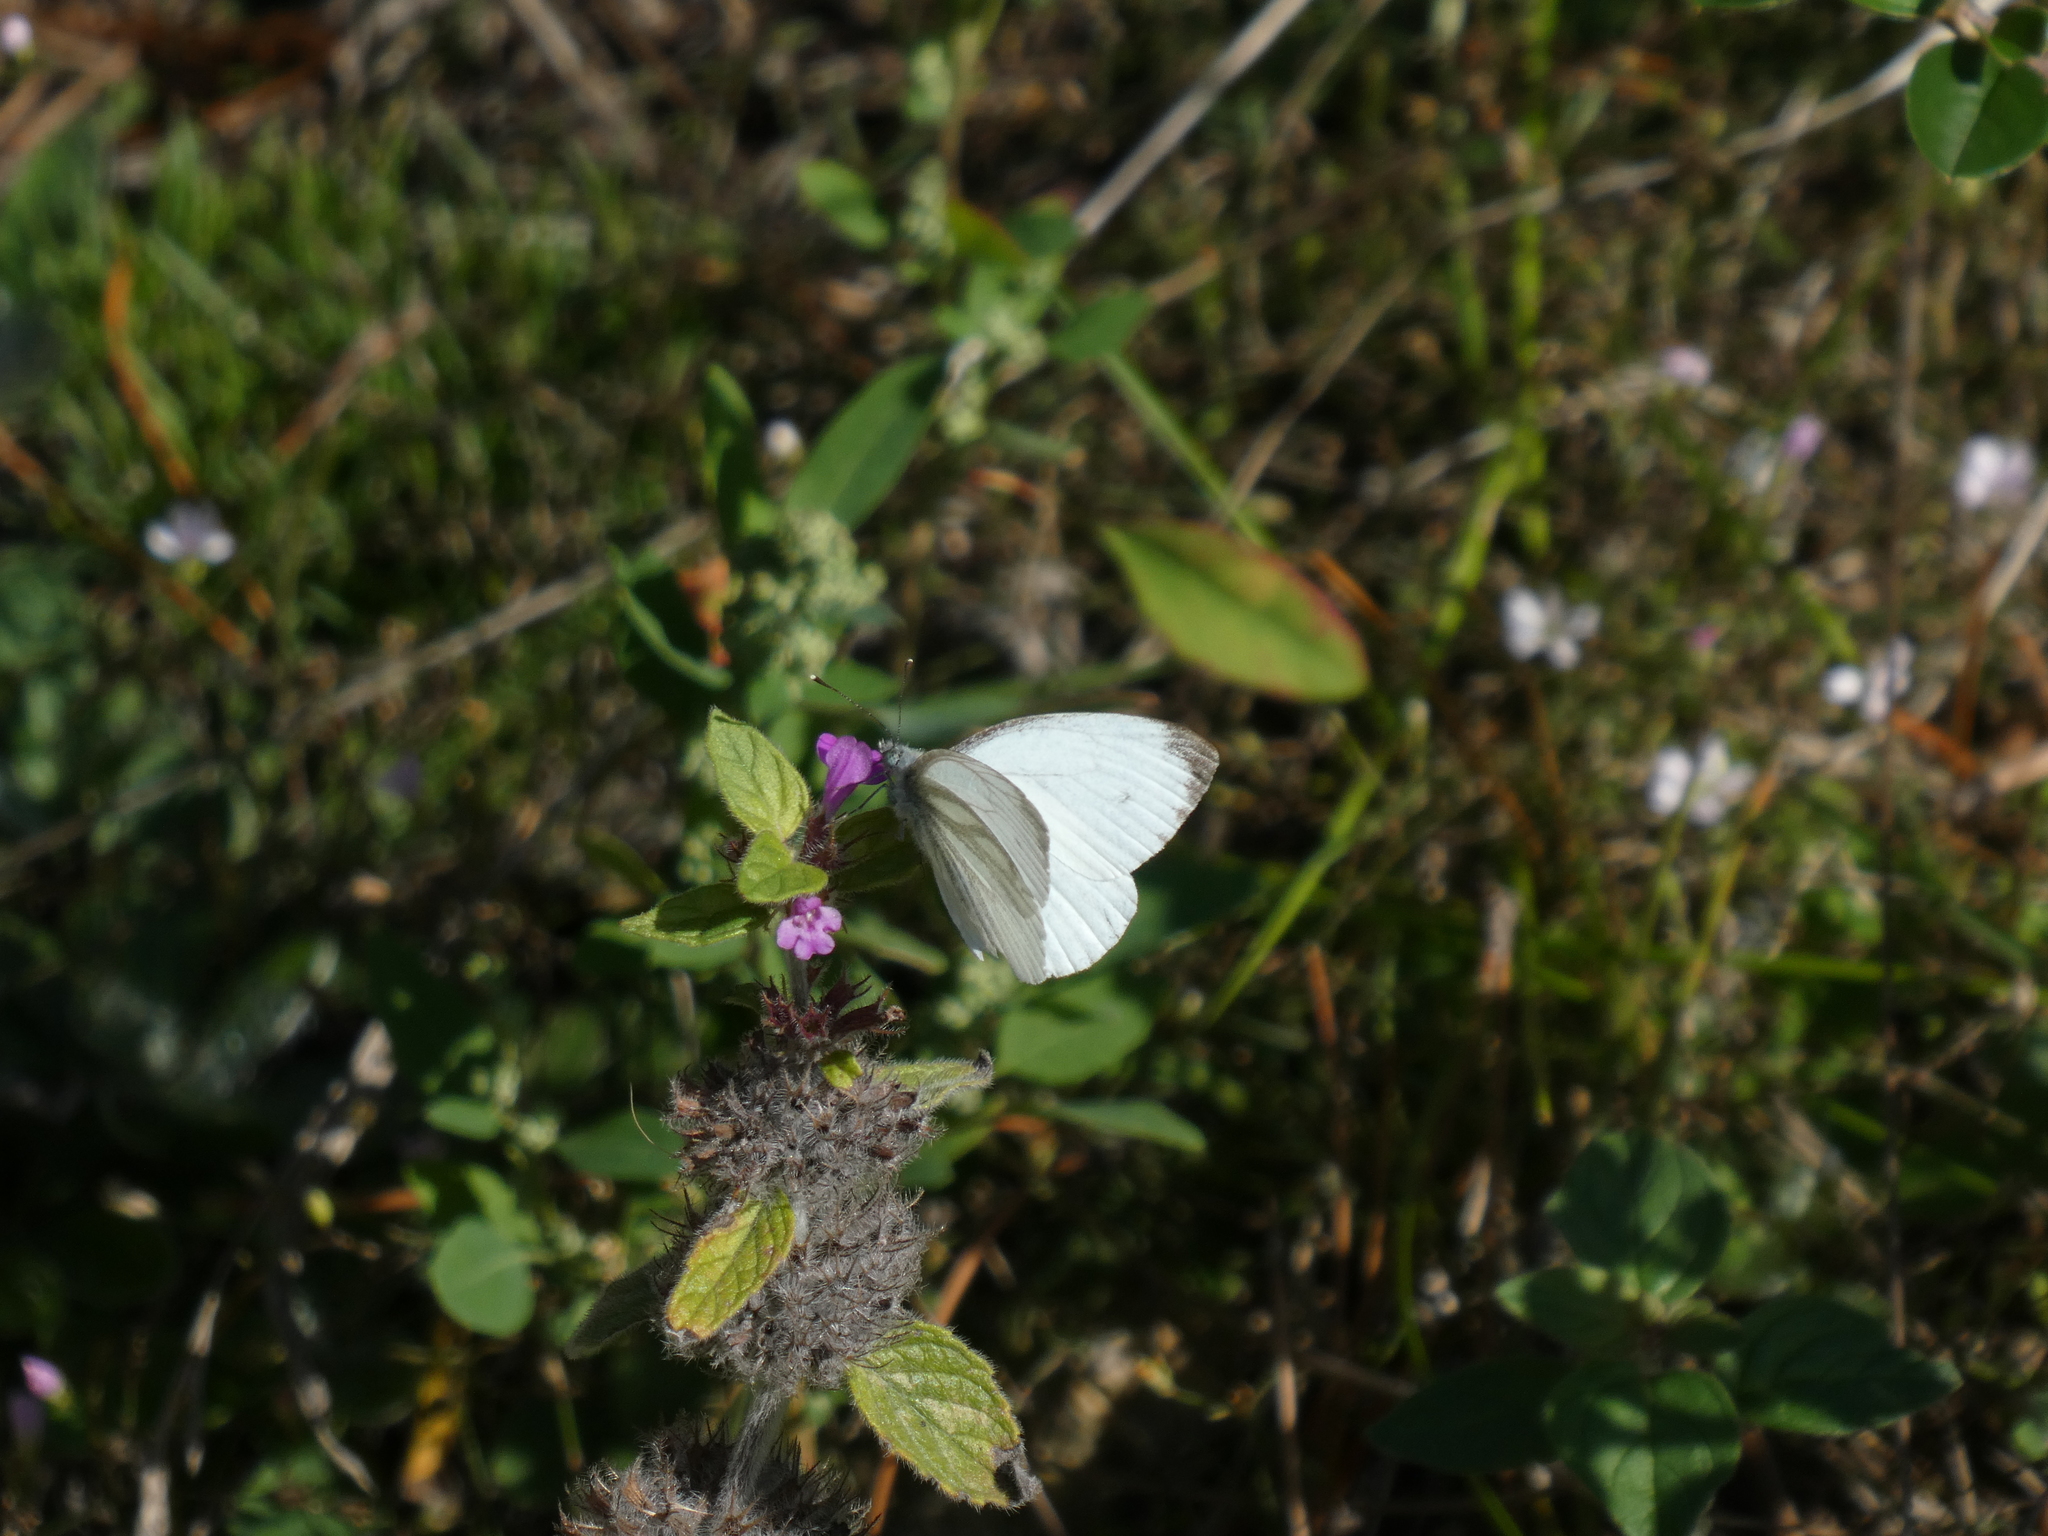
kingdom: Animalia
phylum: Arthropoda
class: Insecta
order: Lepidoptera
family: Pieridae
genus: Pieris
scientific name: Pieris napi
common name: Green-veined white
